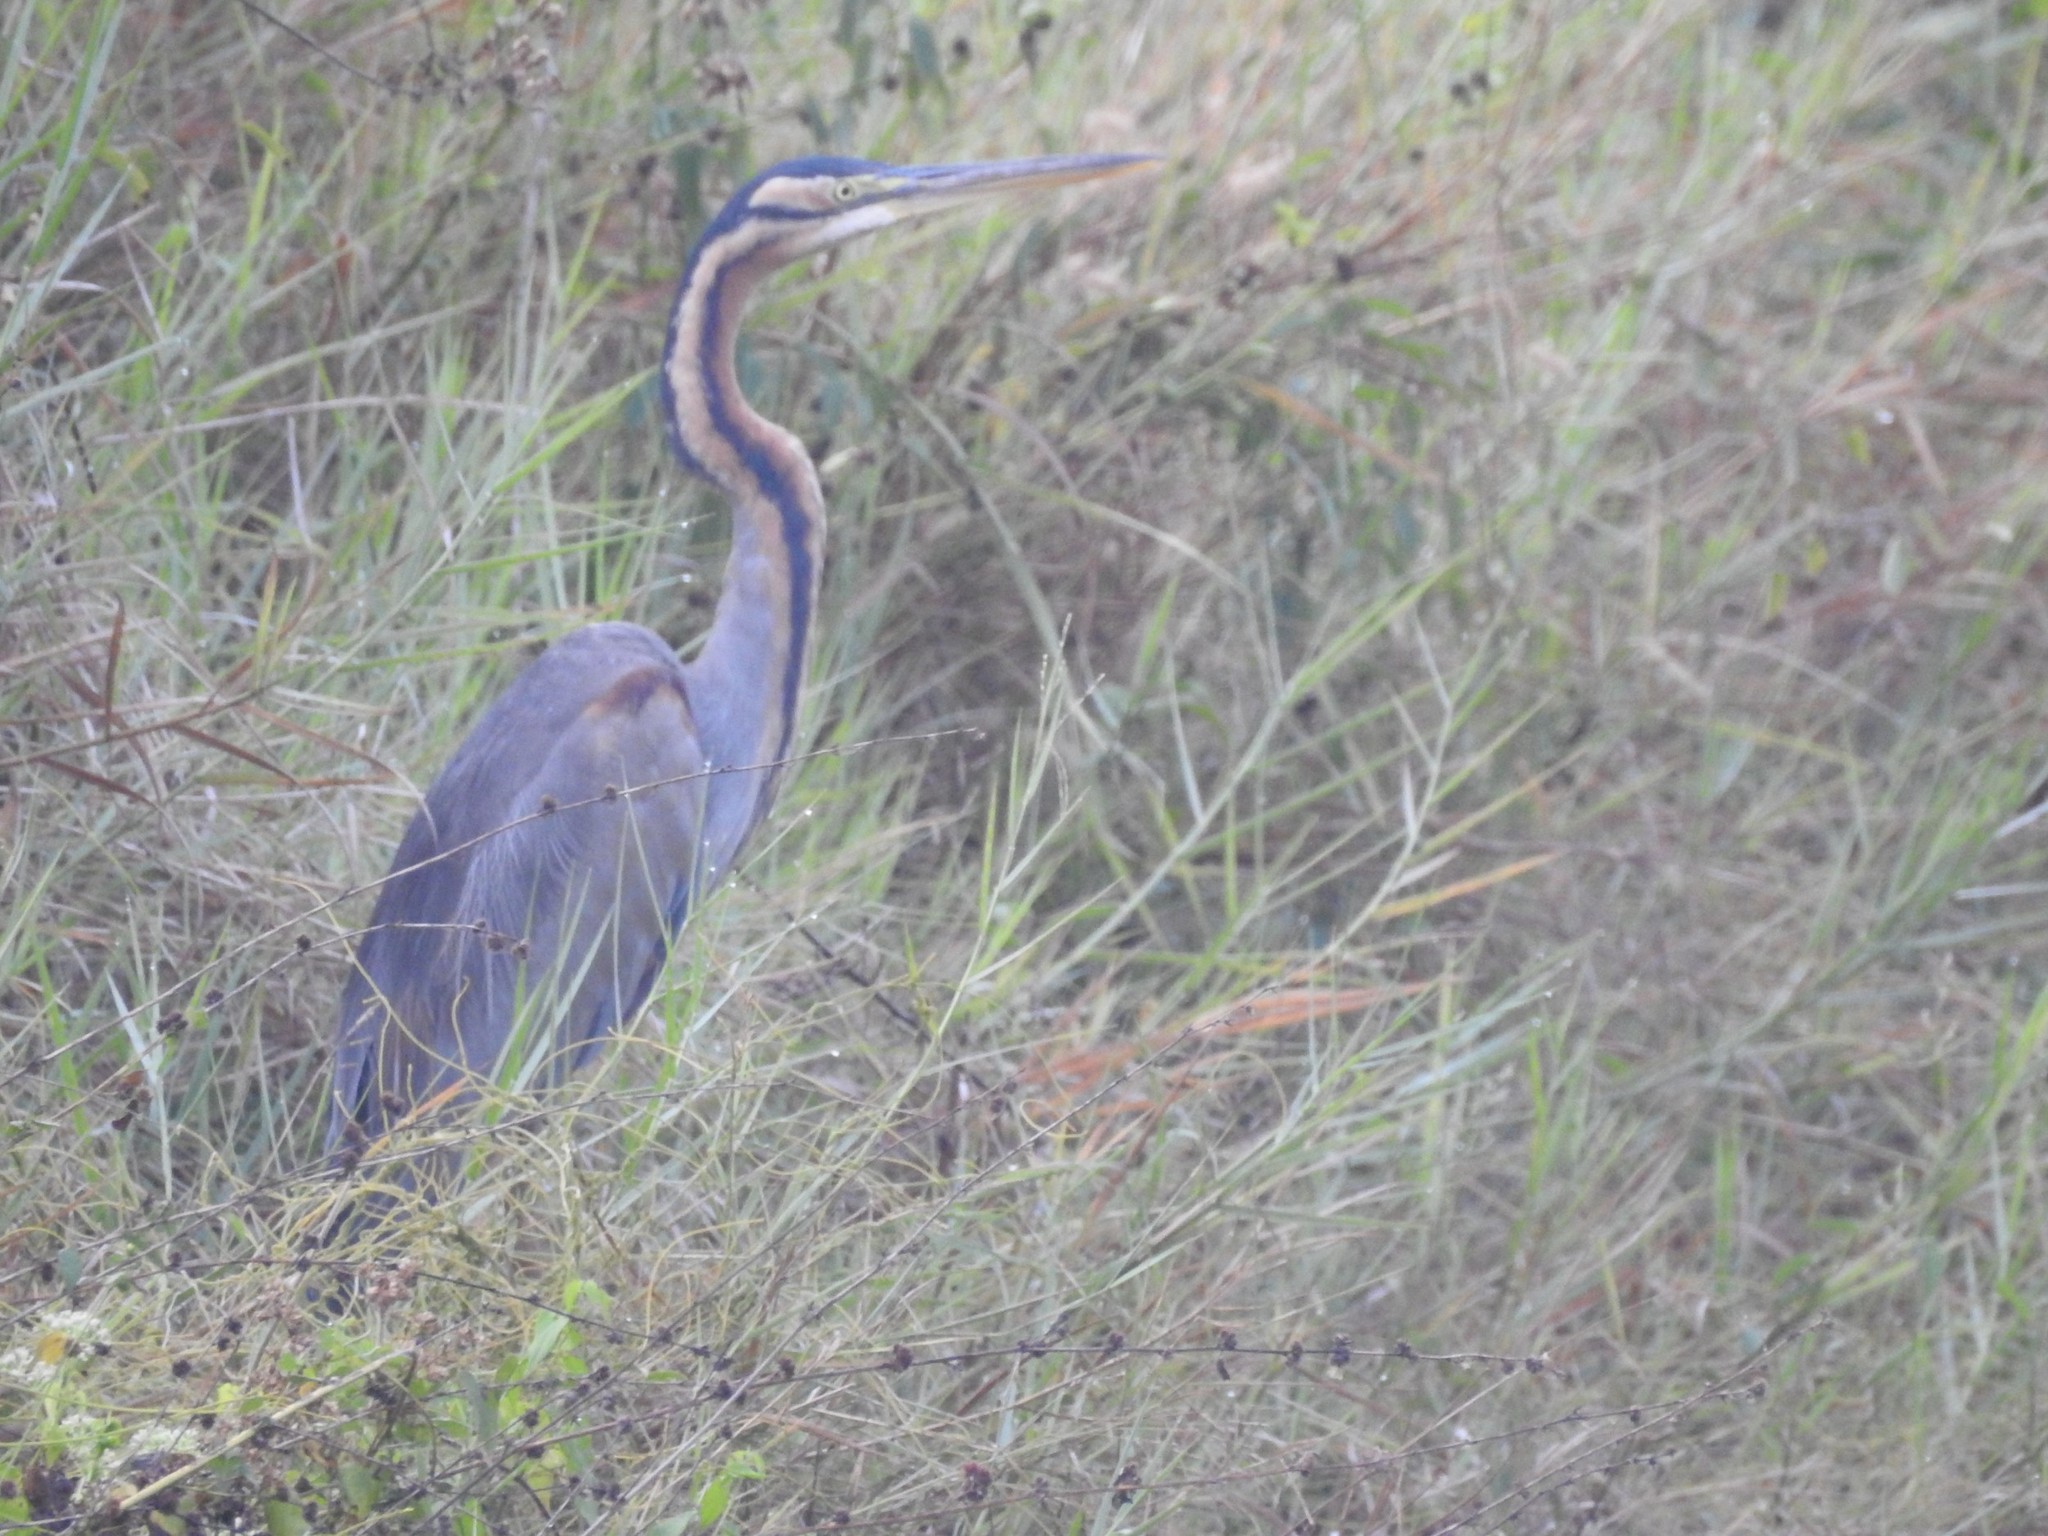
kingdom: Animalia
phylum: Chordata
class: Aves
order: Pelecaniformes
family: Ardeidae
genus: Ardea
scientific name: Ardea purpurea
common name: Purple heron
